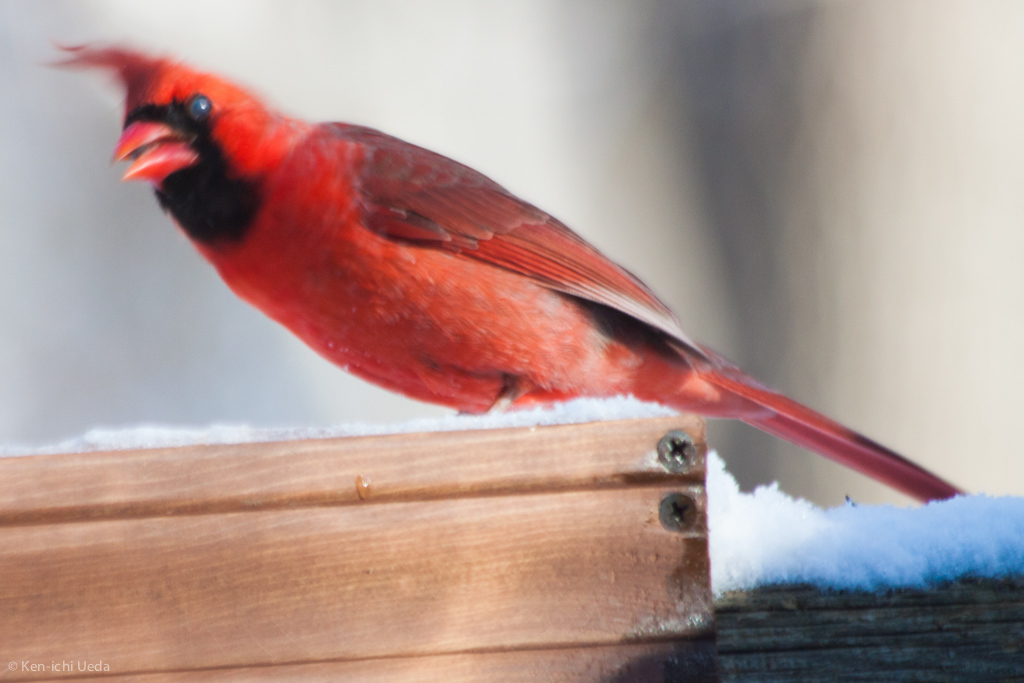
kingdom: Animalia
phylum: Chordata
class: Aves
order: Passeriformes
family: Cardinalidae
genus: Cardinalis
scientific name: Cardinalis cardinalis
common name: Northern cardinal
